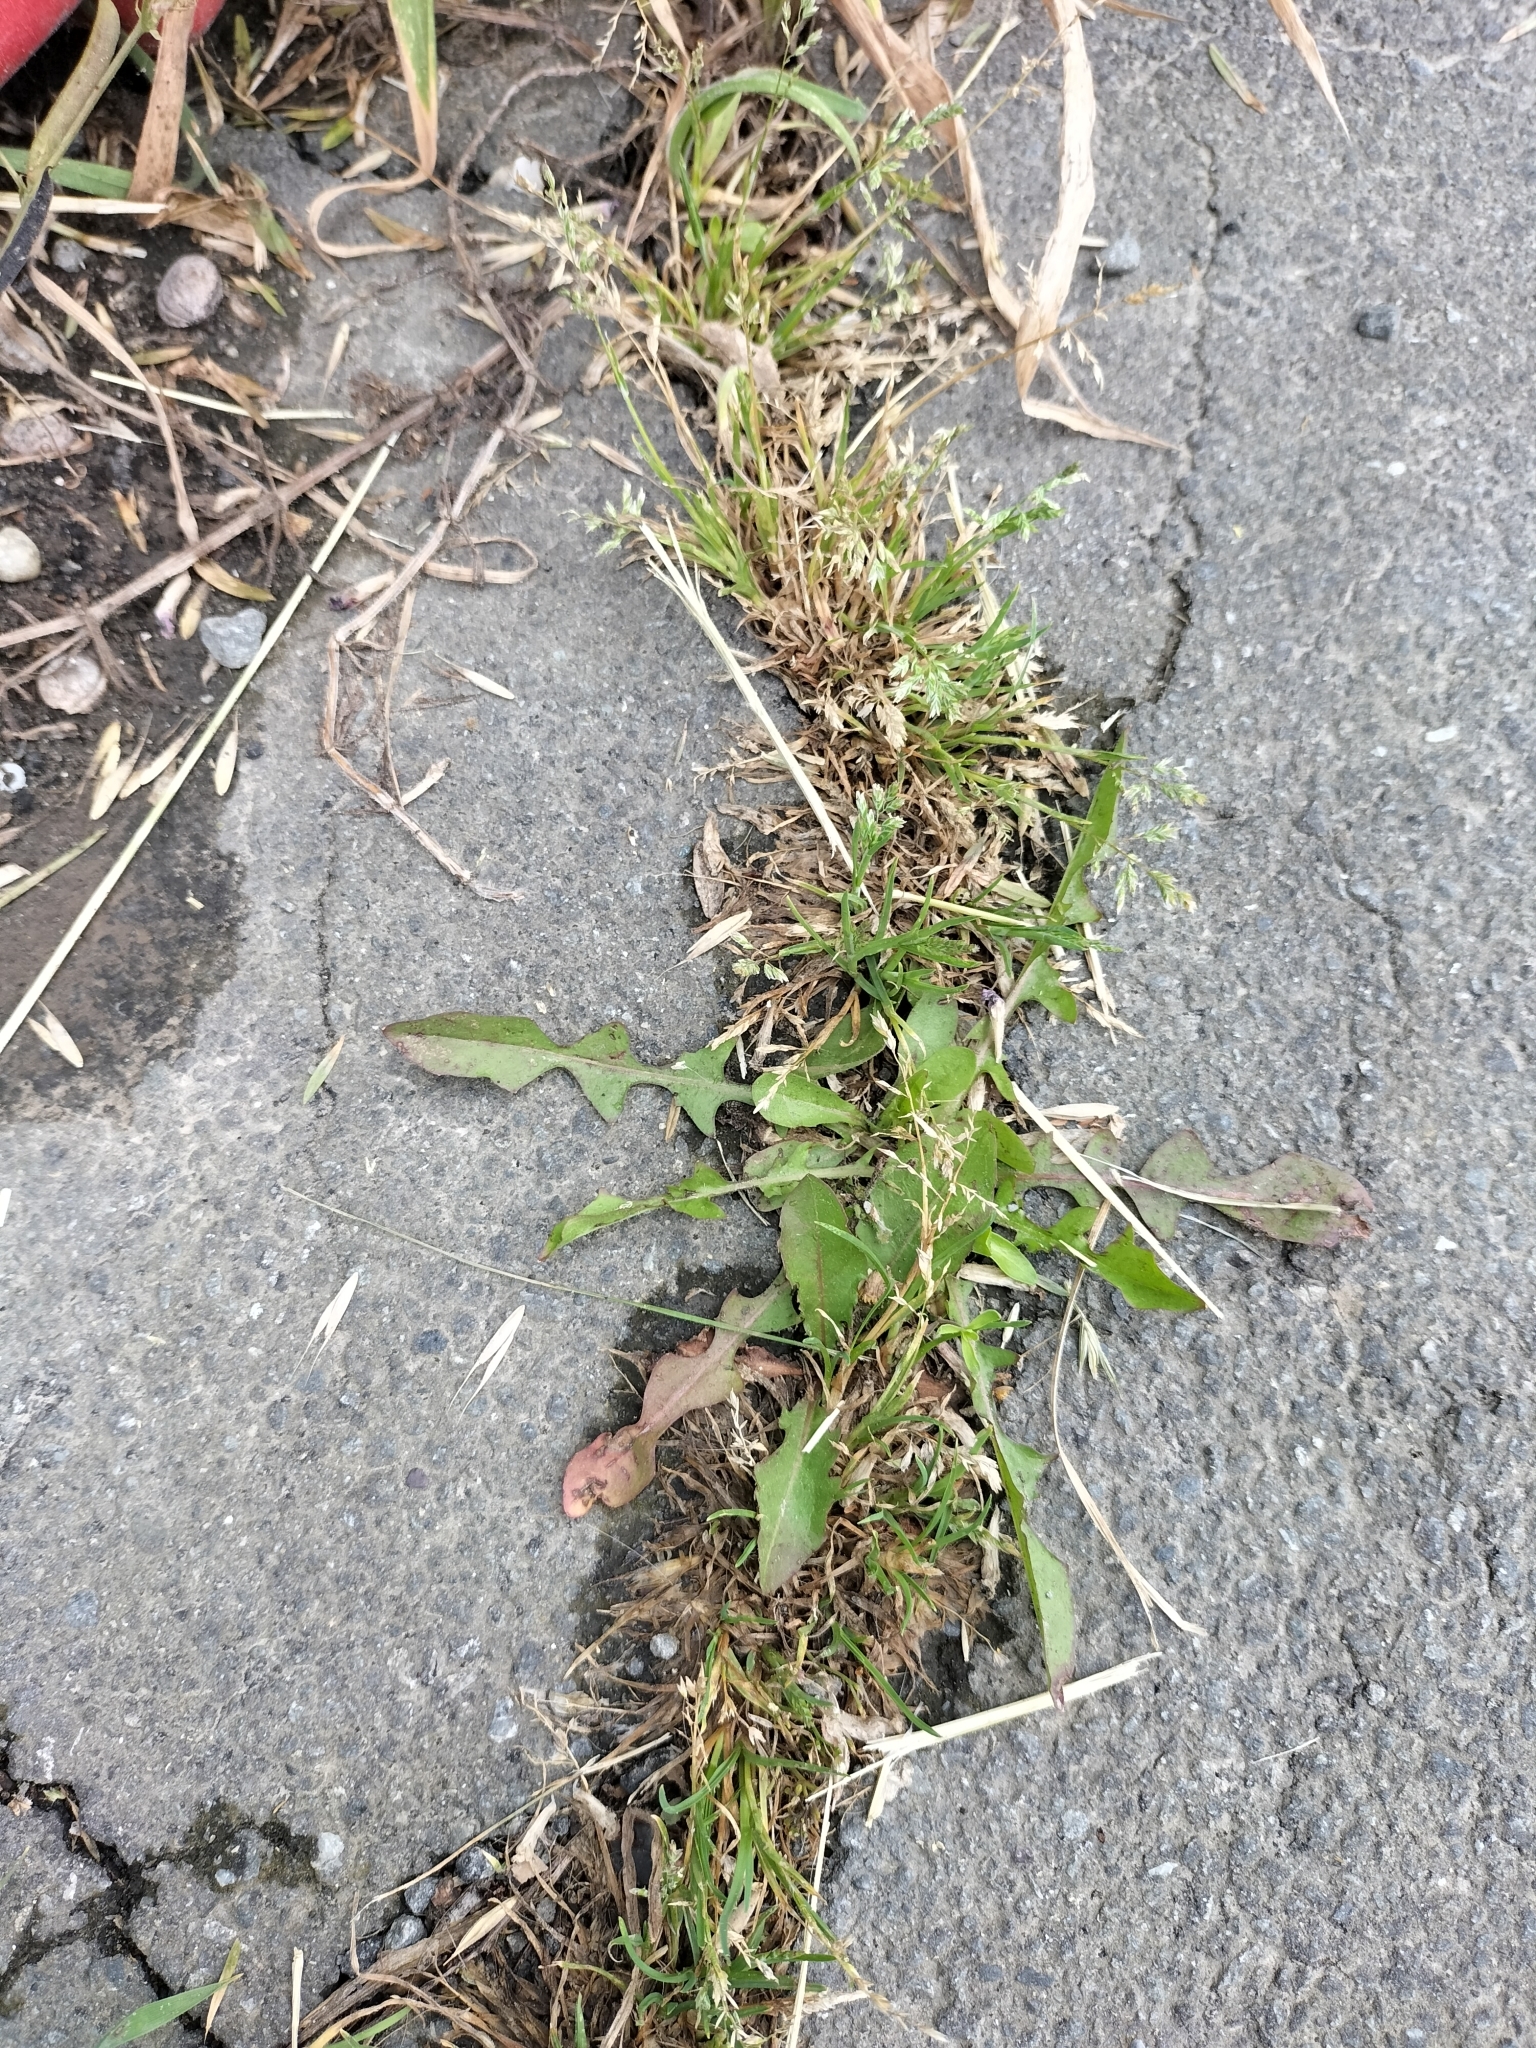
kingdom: Plantae
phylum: Tracheophyta
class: Liliopsida
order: Poales
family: Poaceae
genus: Poa
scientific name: Poa annua
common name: Annual bluegrass
